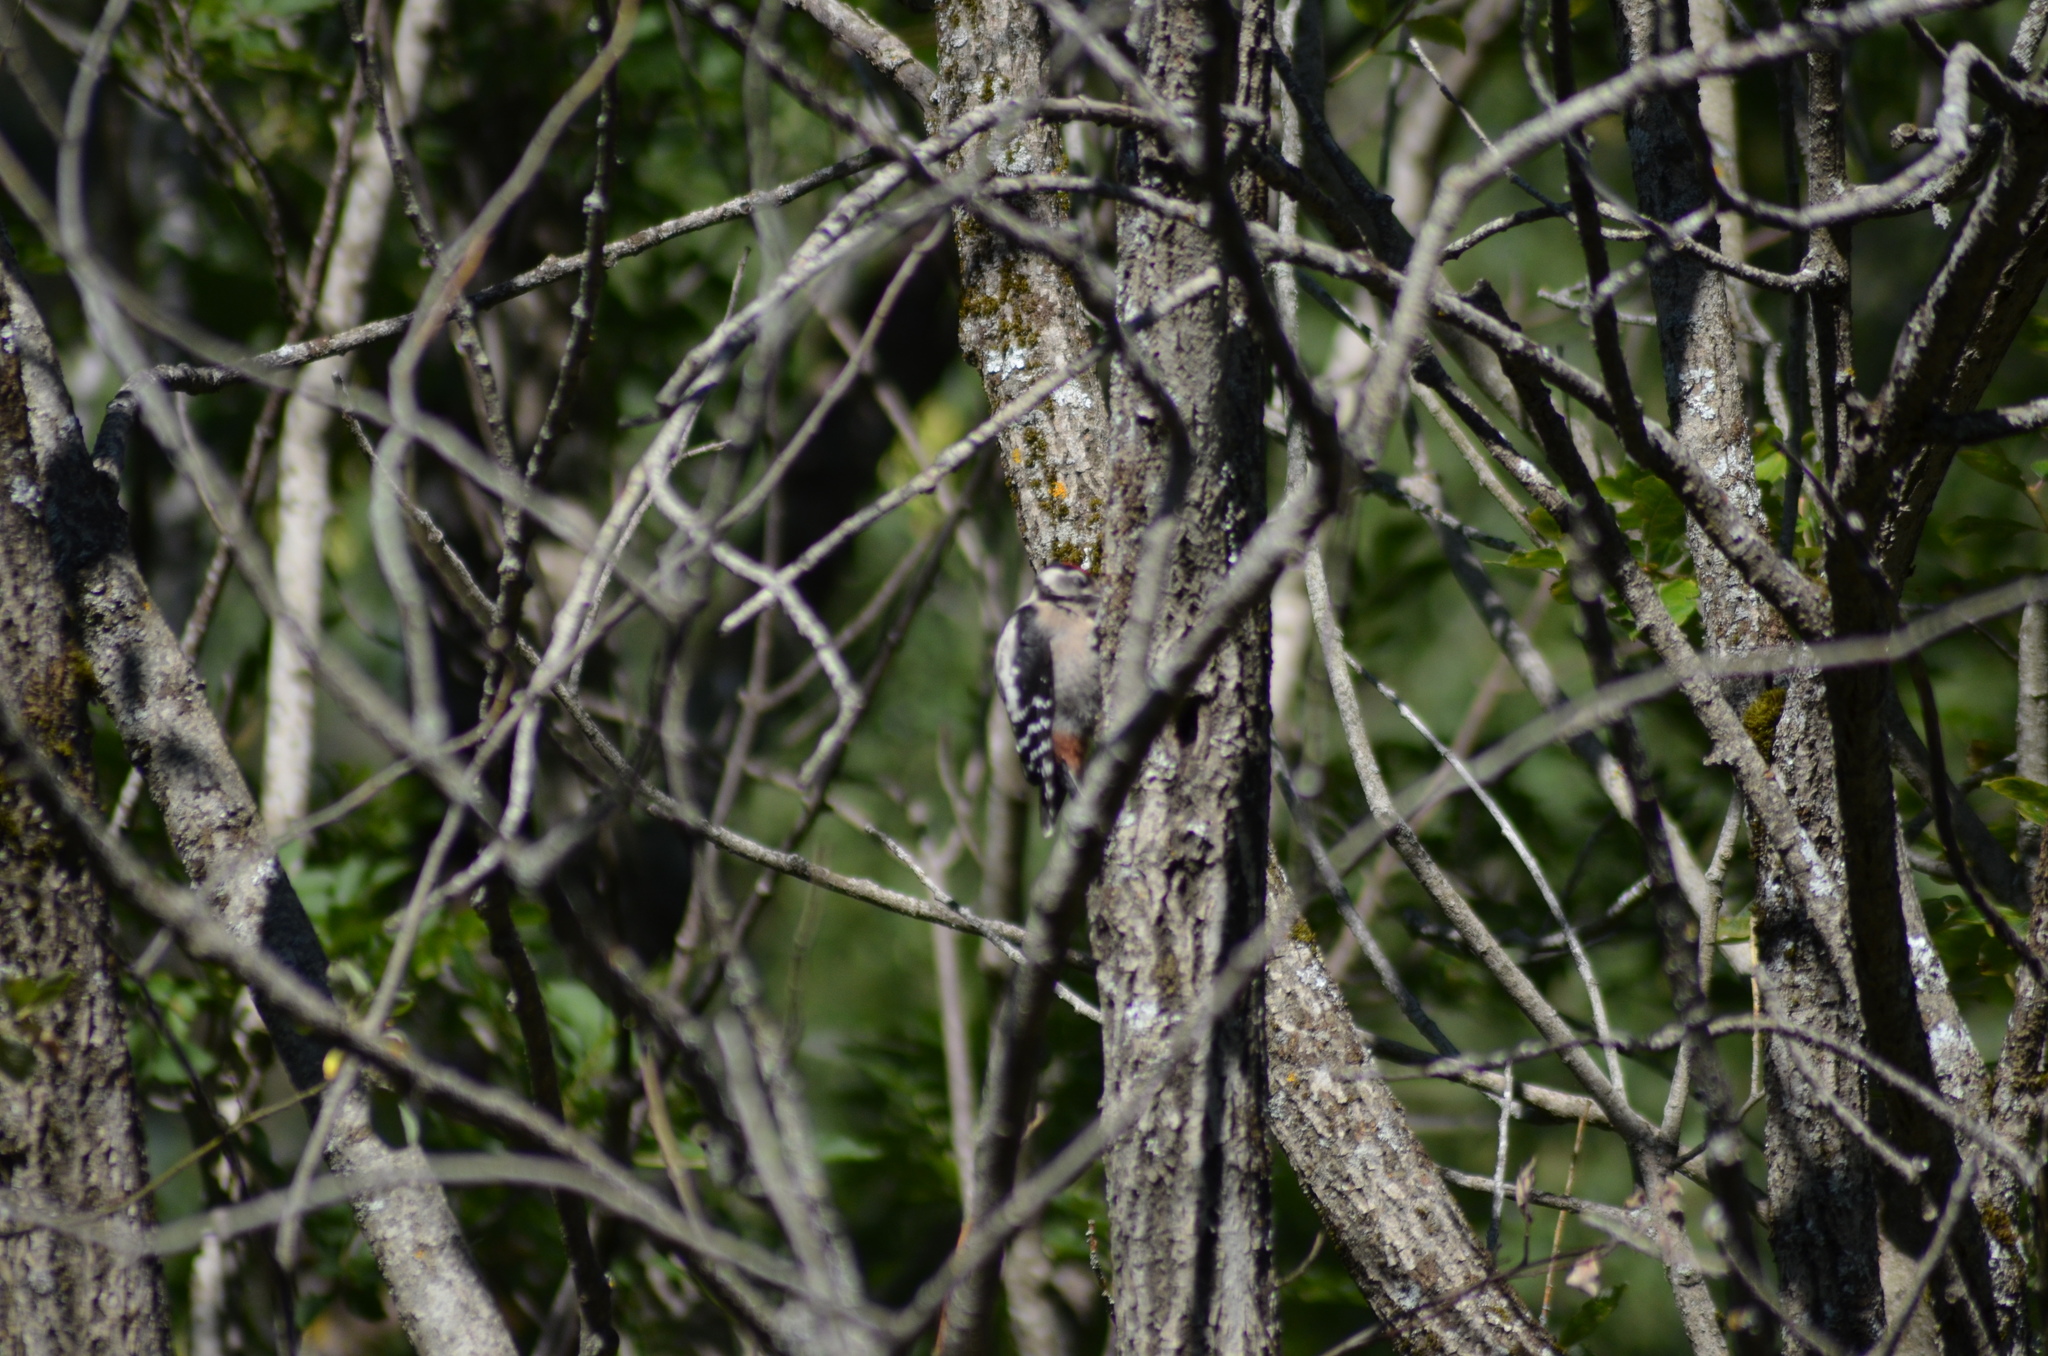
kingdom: Animalia
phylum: Chordata
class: Aves
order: Piciformes
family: Picidae
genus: Dendrocopos
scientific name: Dendrocopos major
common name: Great spotted woodpecker
